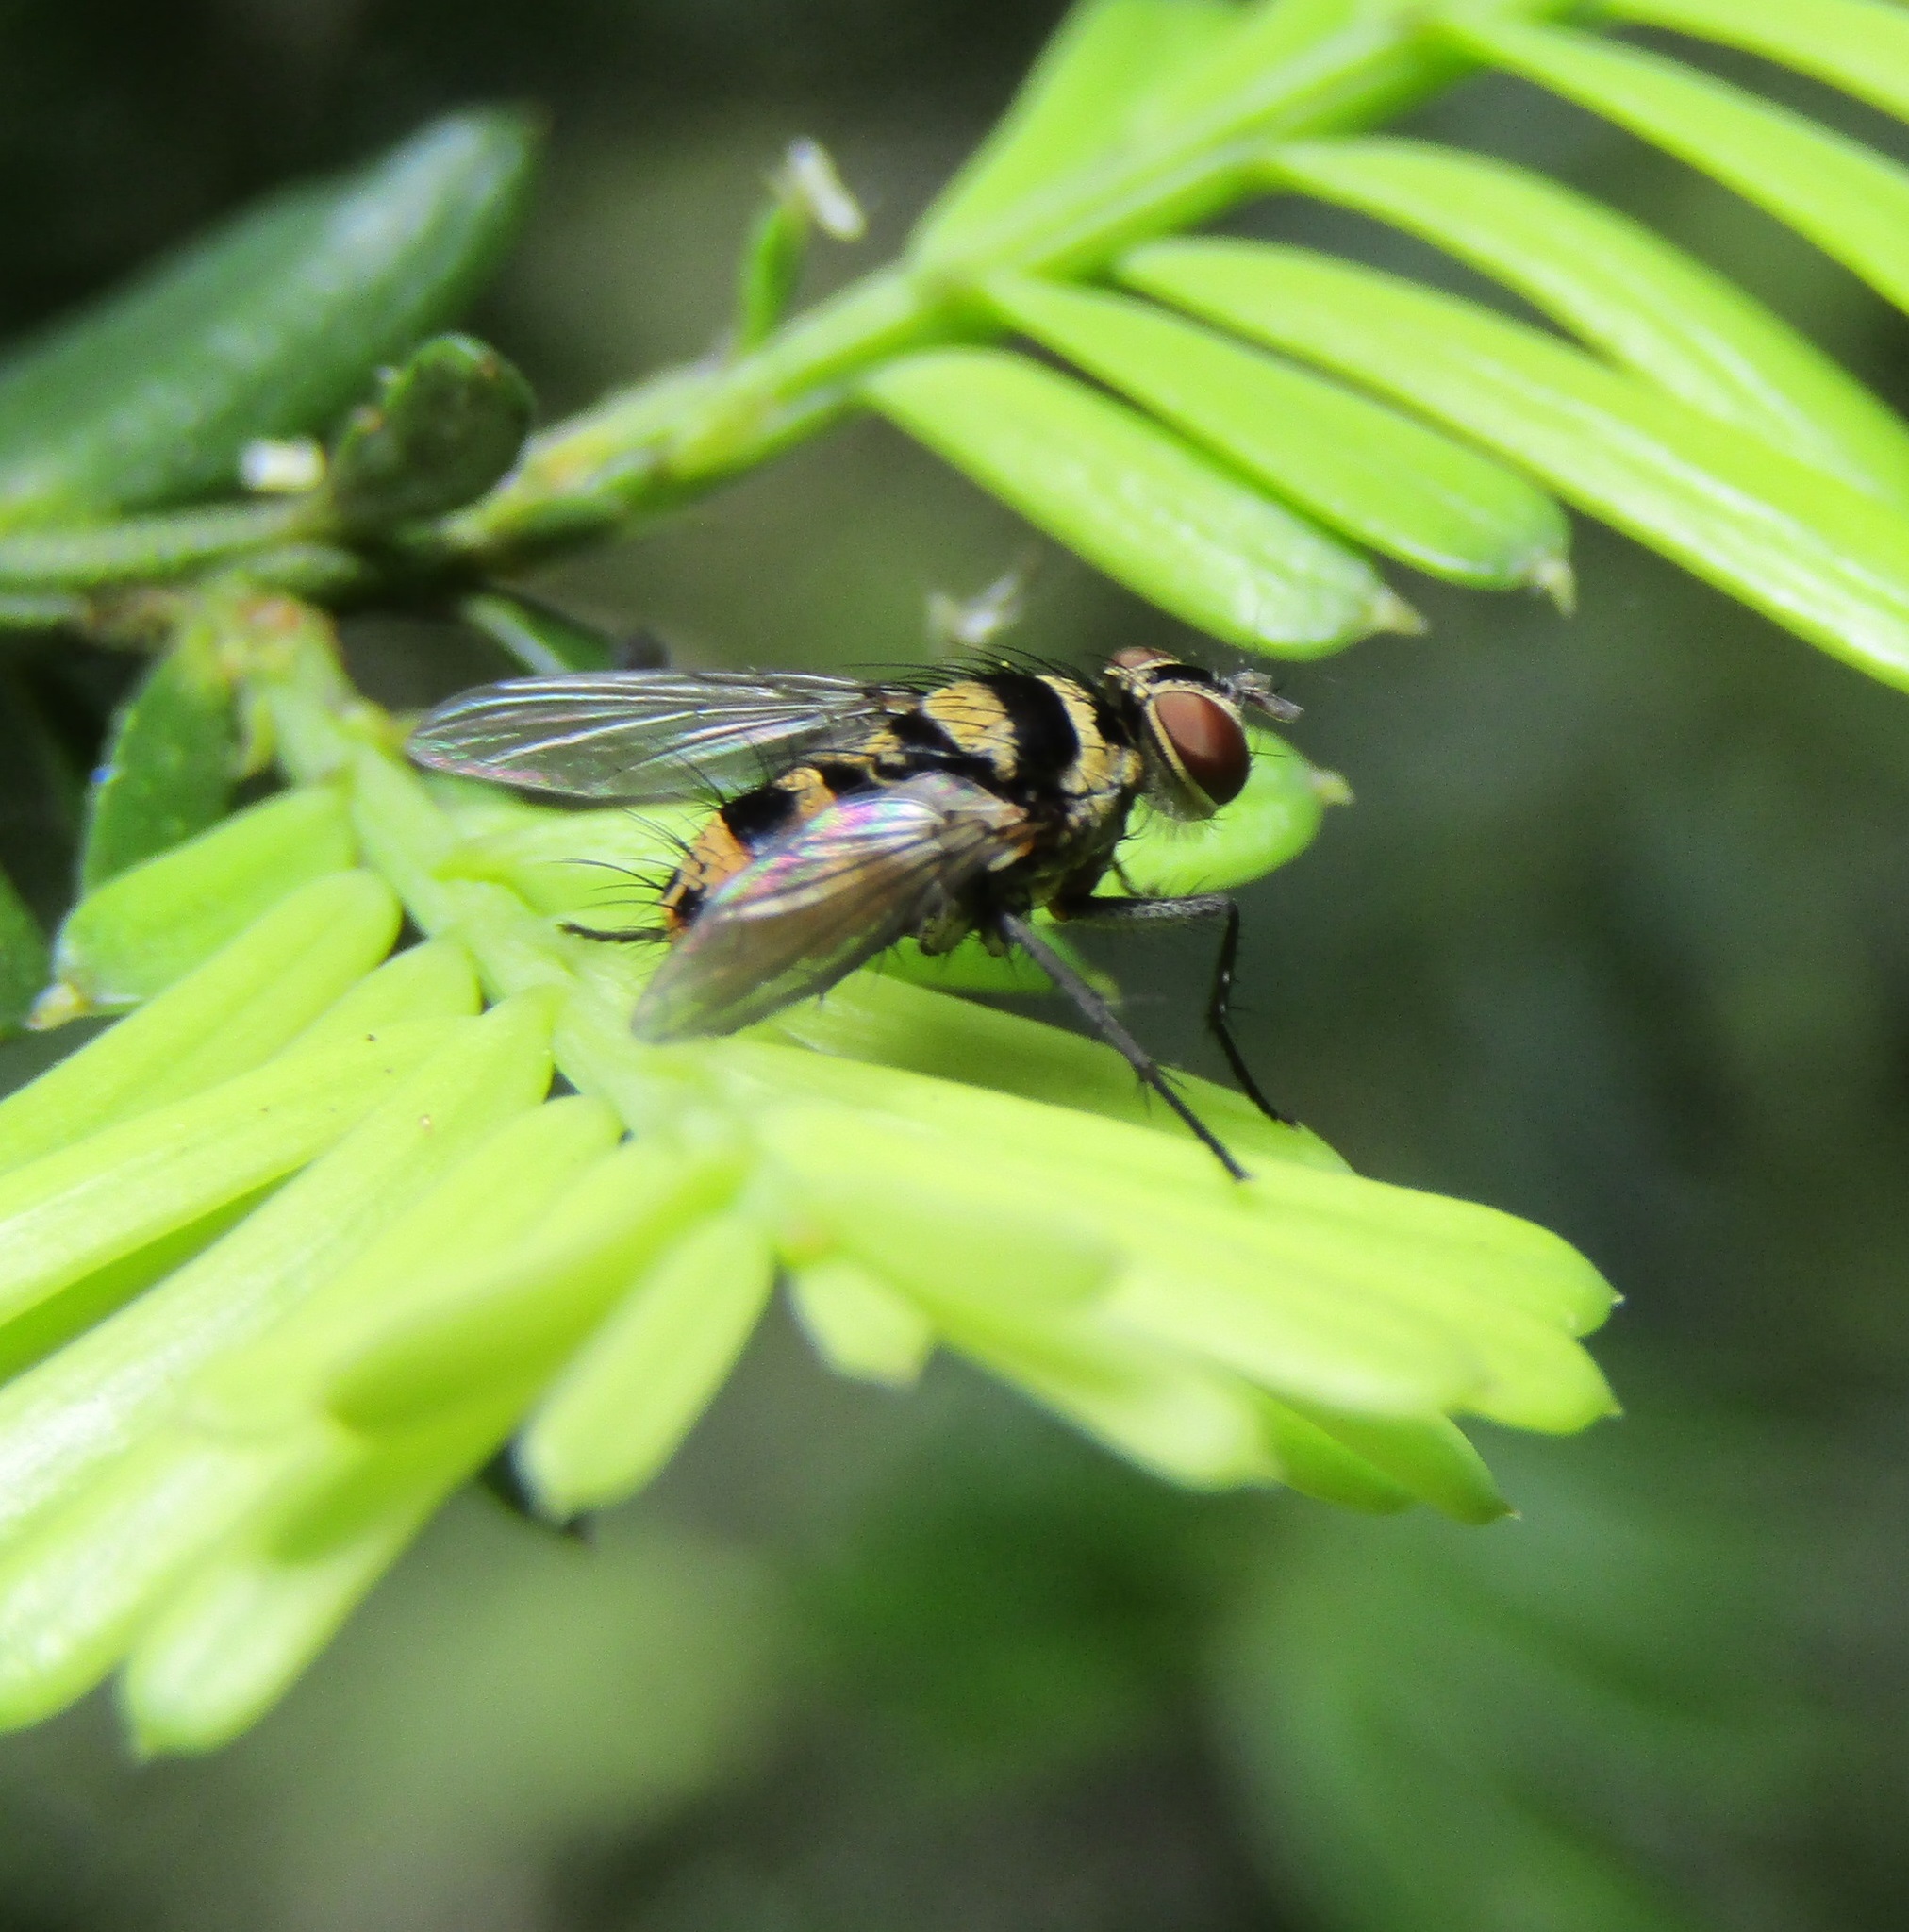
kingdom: Animalia
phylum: Arthropoda
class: Insecta
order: Diptera
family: Tachinidae
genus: Trigonospila
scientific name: Trigonospila brevifacies
